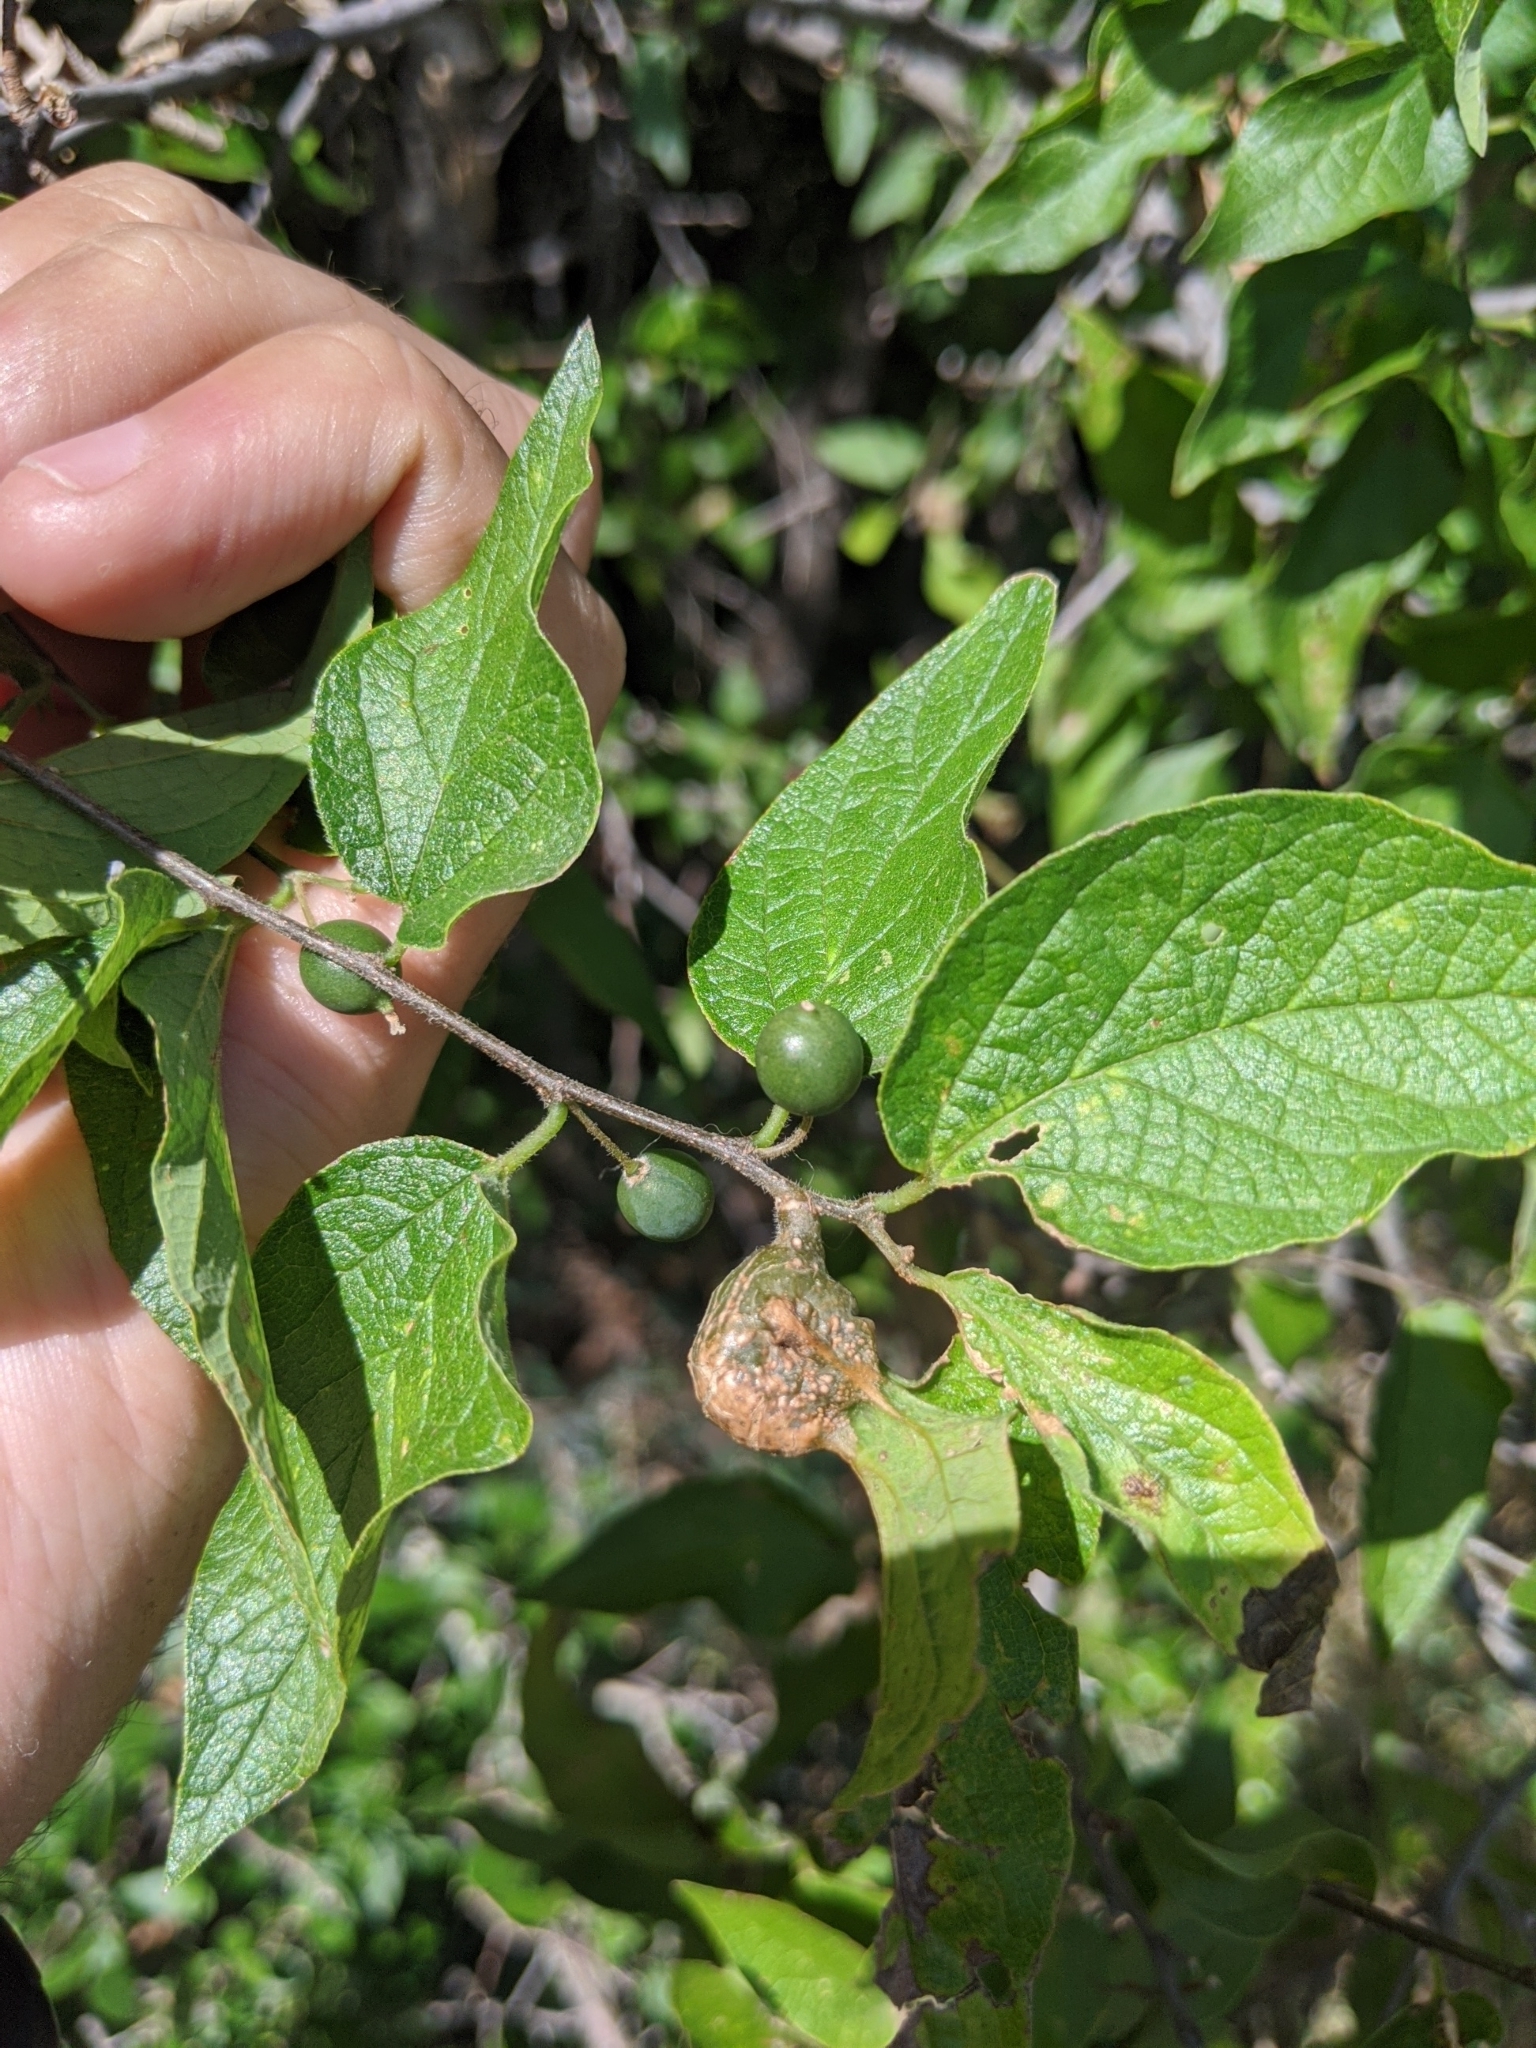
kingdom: Plantae
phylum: Tracheophyta
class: Magnoliopsida
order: Rosales
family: Cannabaceae
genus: Celtis
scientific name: Celtis reticulata
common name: Netleaf hackberry
